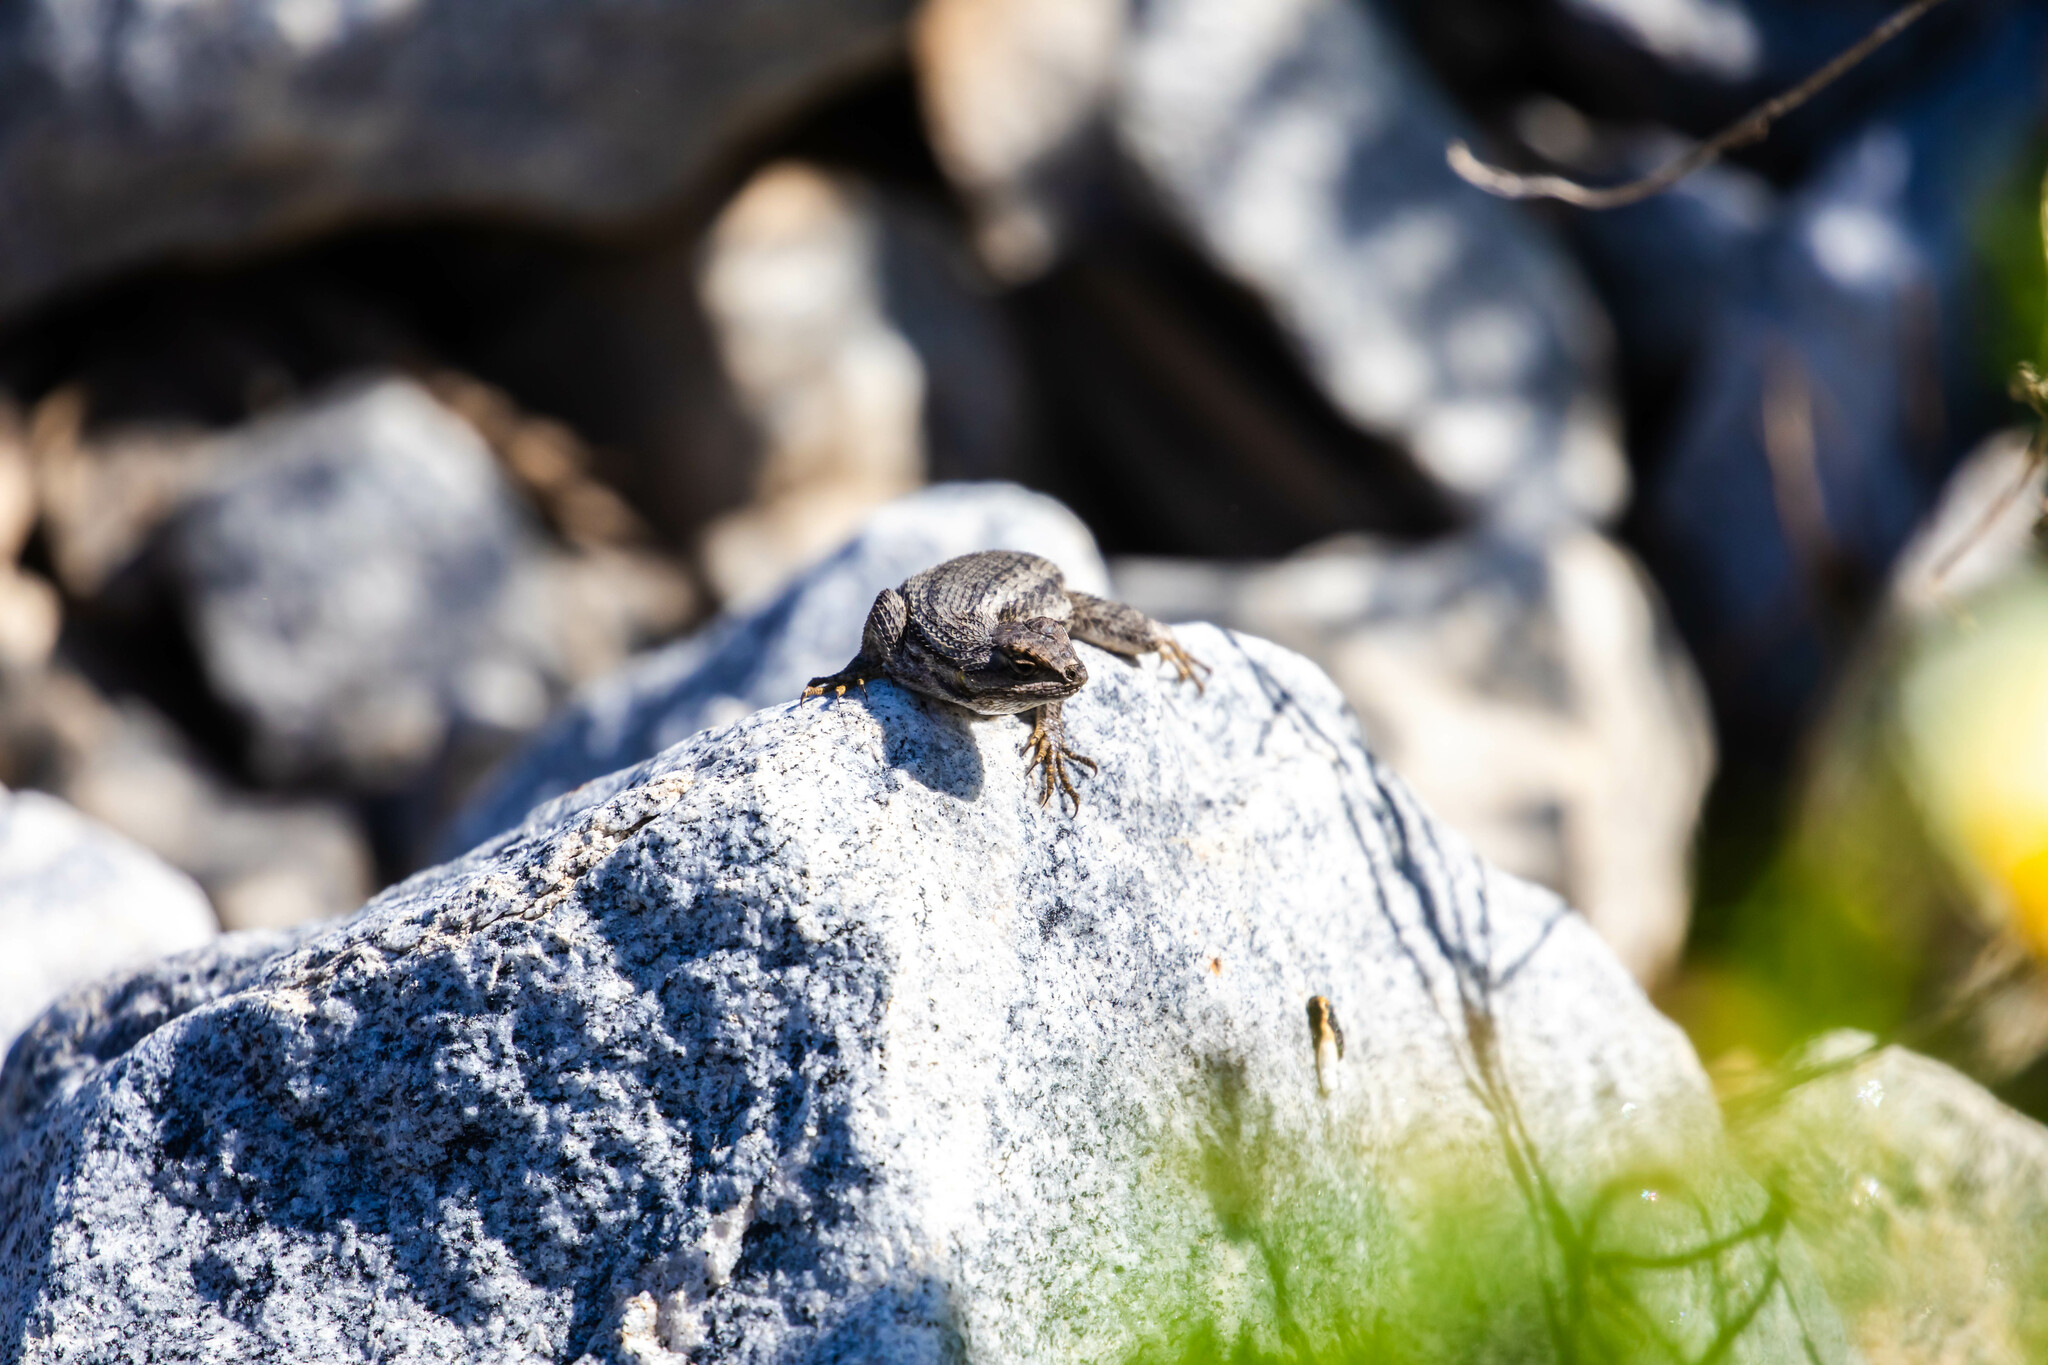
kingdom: Animalia
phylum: Chordata
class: Squamata
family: Phrynosomatidae
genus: Sceloporus
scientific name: Sceloporus occidentalis
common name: Western fence lizard
